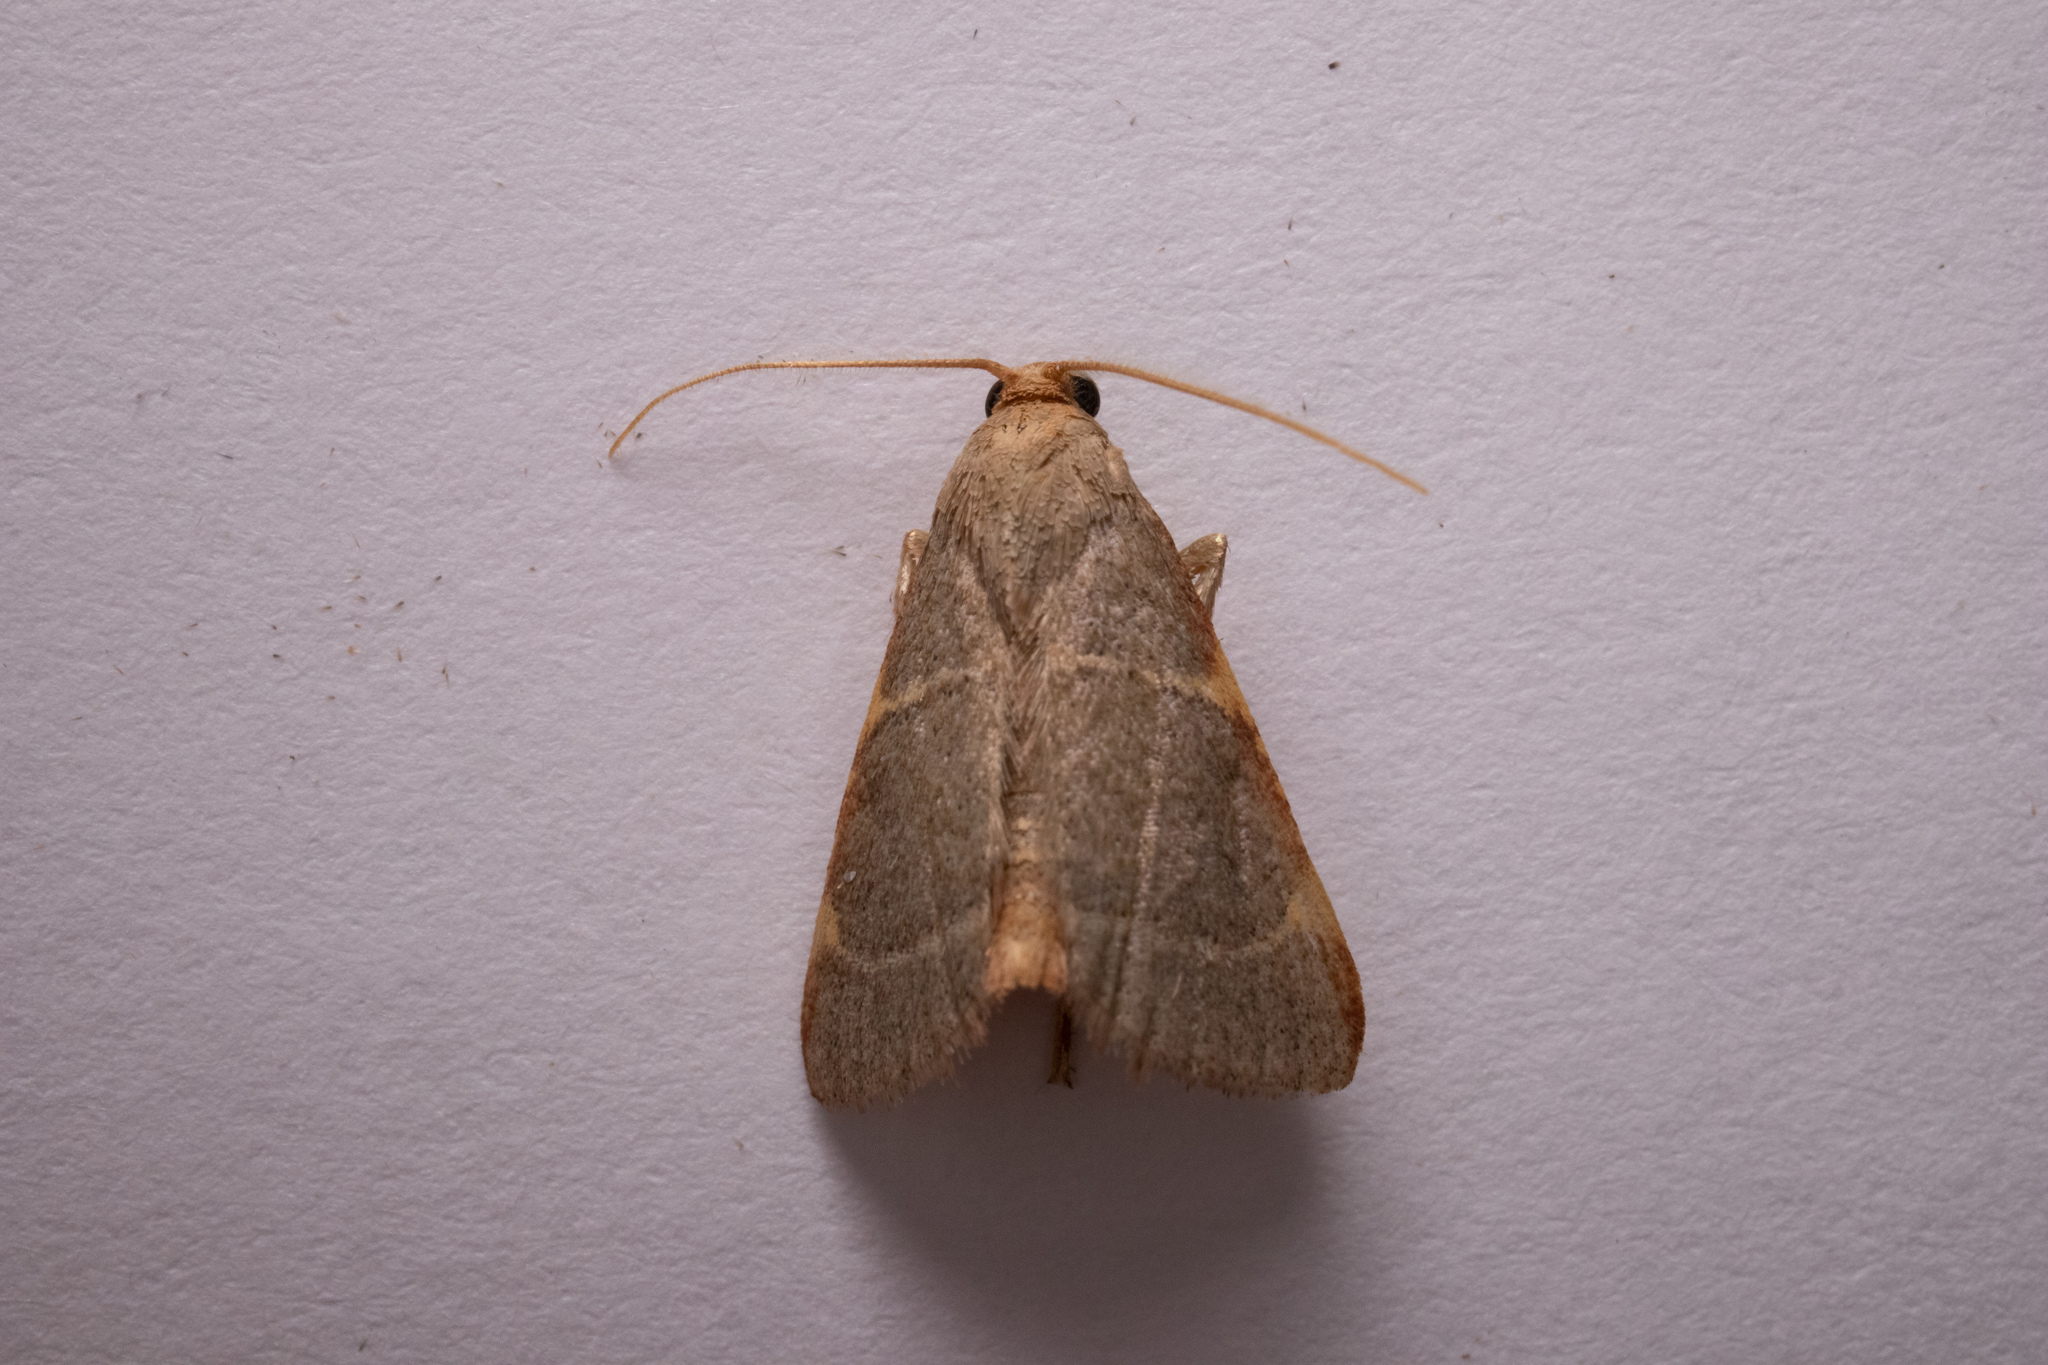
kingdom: Animalia
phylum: Arthropoda
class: Insecta
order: Lepidoptera
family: Pyralidae
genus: Hypsopygia
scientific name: Hypsopygia binodulalis
